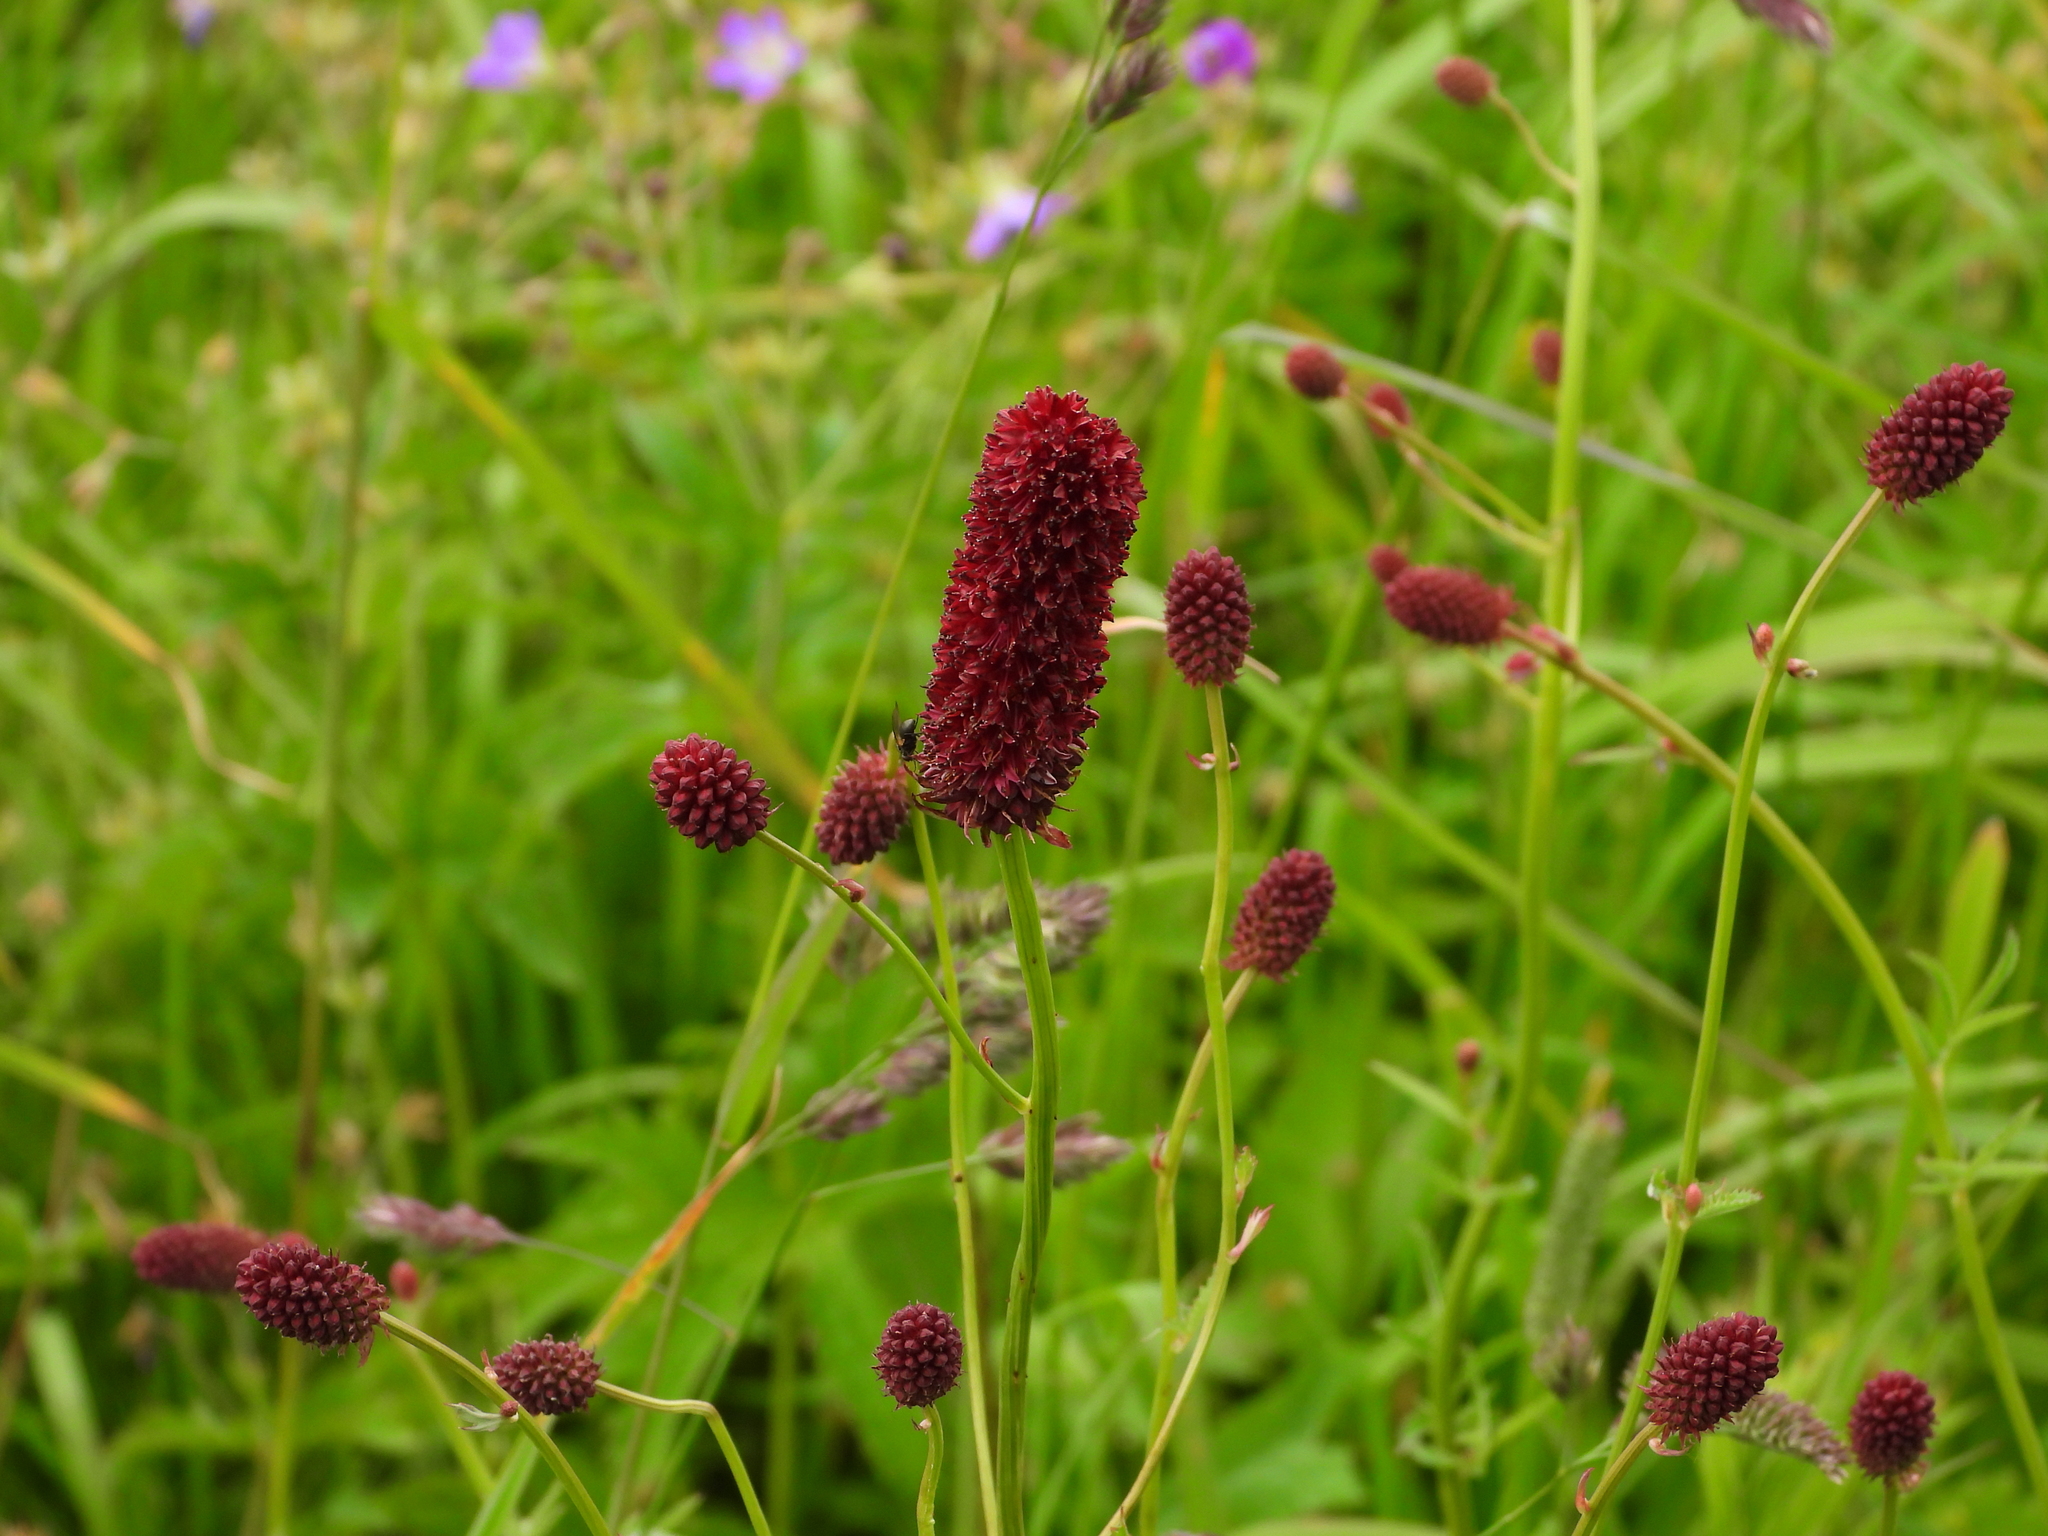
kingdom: Plantae
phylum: Tracheophyta
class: Magnoliopsida
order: Rosales
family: Rosaceae
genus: Sanguisorba
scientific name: Sanguisorba officinalis
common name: Great burnet
